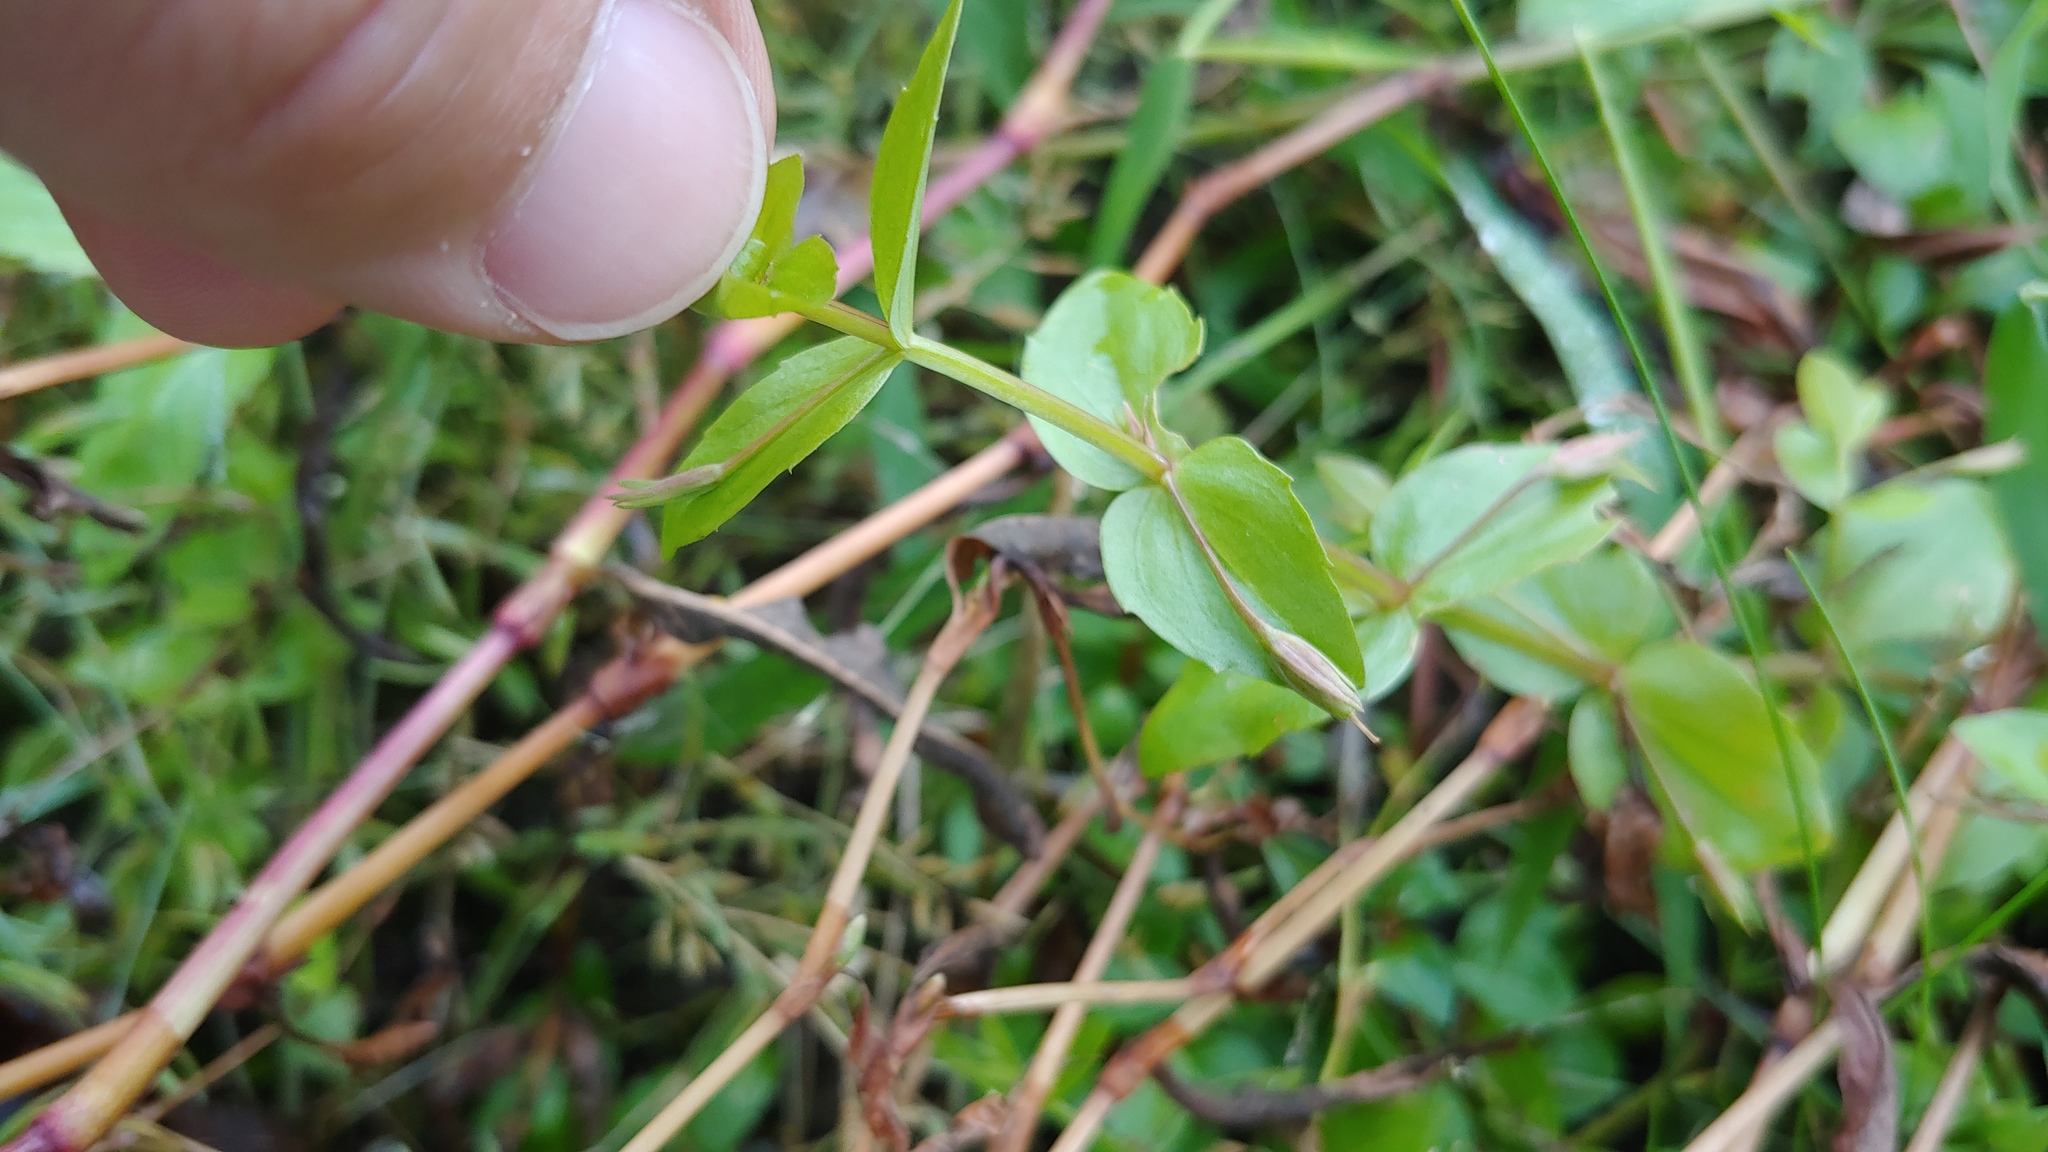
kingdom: Plantae
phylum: Tracheophyta
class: Magnoliopsida
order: Lamiales
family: Linderniaceae
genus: Lindernia
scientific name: Lindernia dubia
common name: Annual false pimpernel
